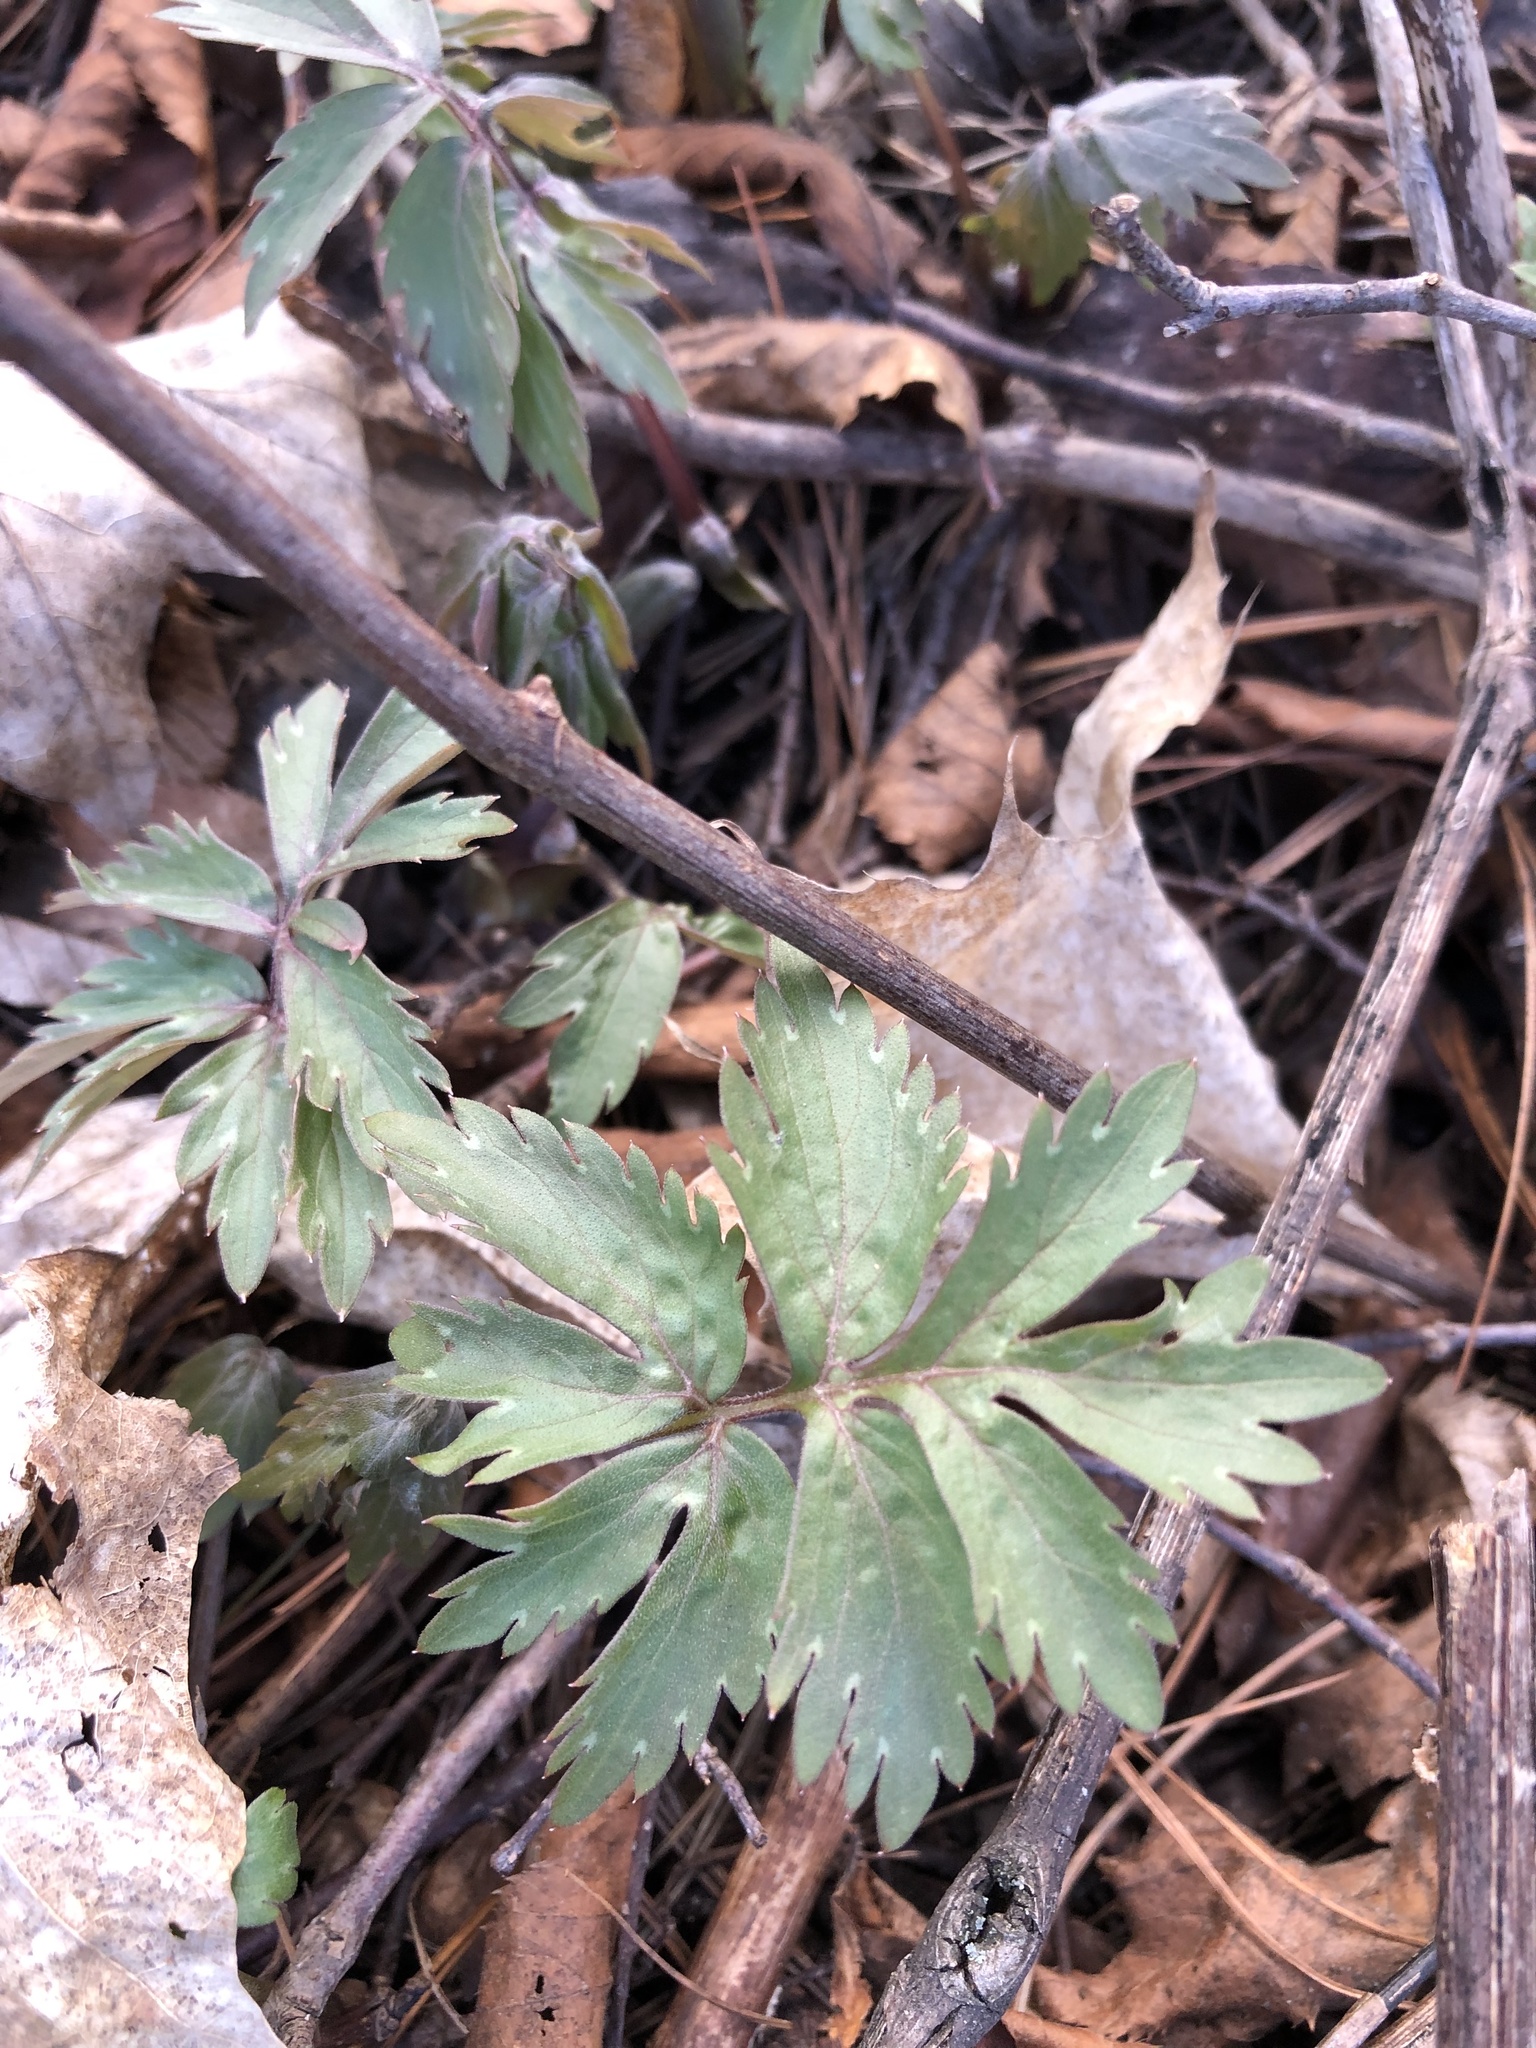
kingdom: Plantae
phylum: Tracheophyta
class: Magnoliopsida
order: Boraginales
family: Hydrophyllaceae
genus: Hydrophyllum
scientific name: Hydrophyllum virginianum
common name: Virginia waterleaf
